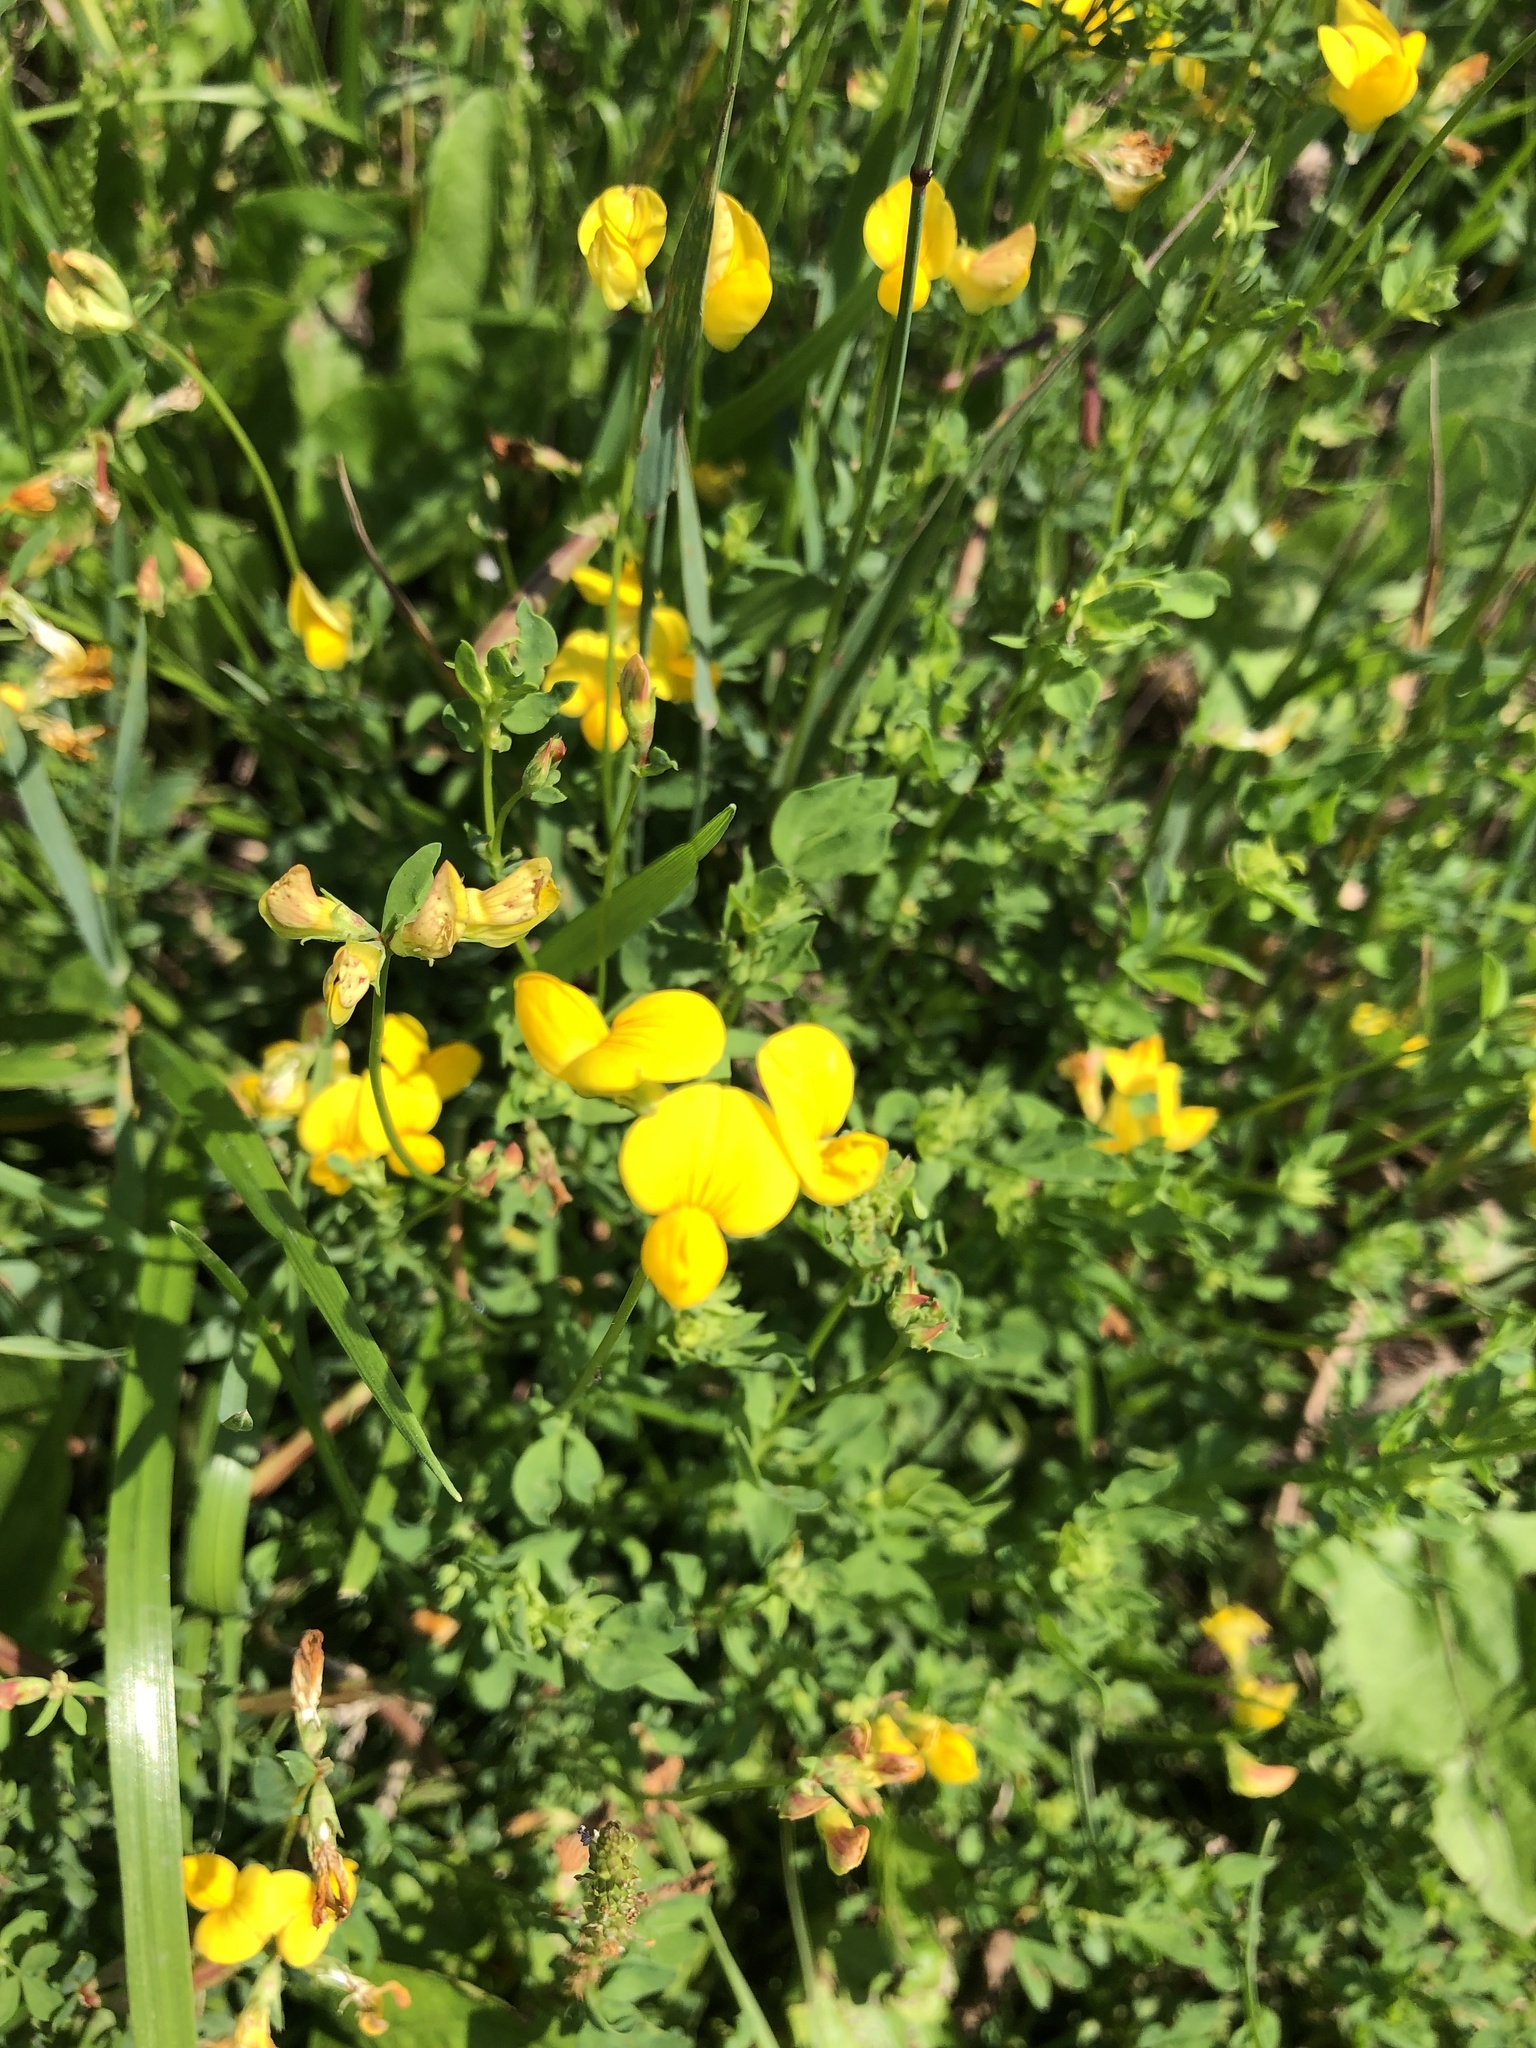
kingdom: Plantae
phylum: Tracheophyta
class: Magnoliopsida
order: Fabales
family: Fabaceae
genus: Lotus
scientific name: Lotus corniculatus
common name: Common bird's-foot-trefoil
